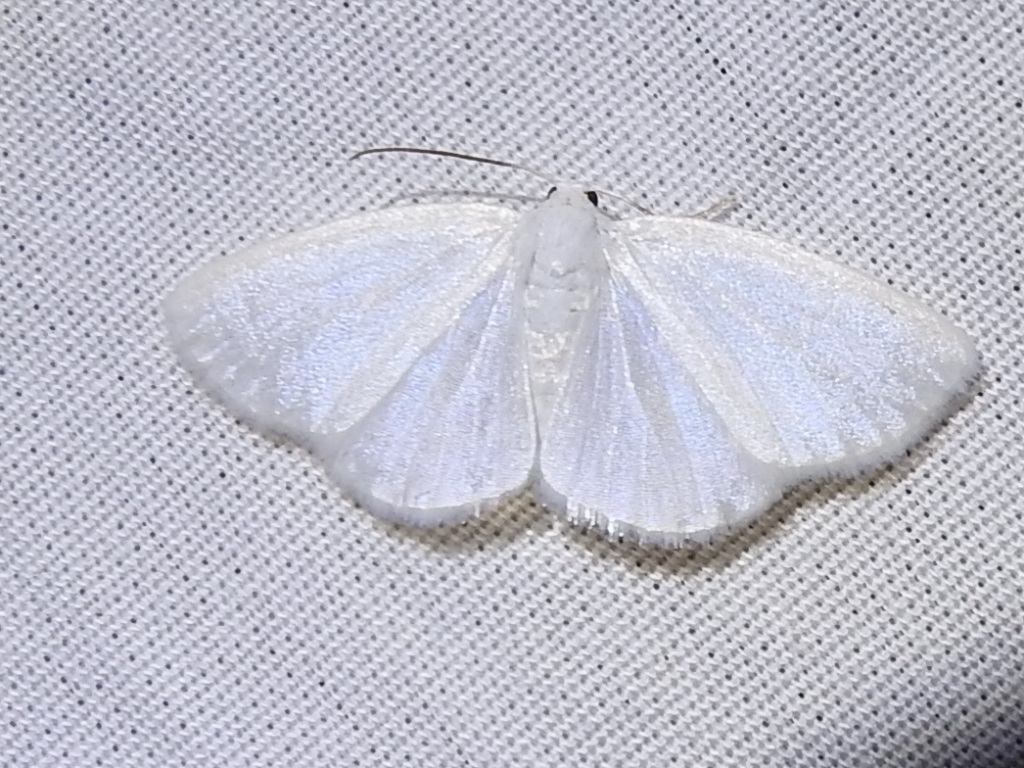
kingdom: Animalia
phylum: Arthropoda
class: Insecta
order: Lepidoptera
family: Geometridae
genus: Lomographa
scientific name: Lomographa vestaliata
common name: White spring moth
